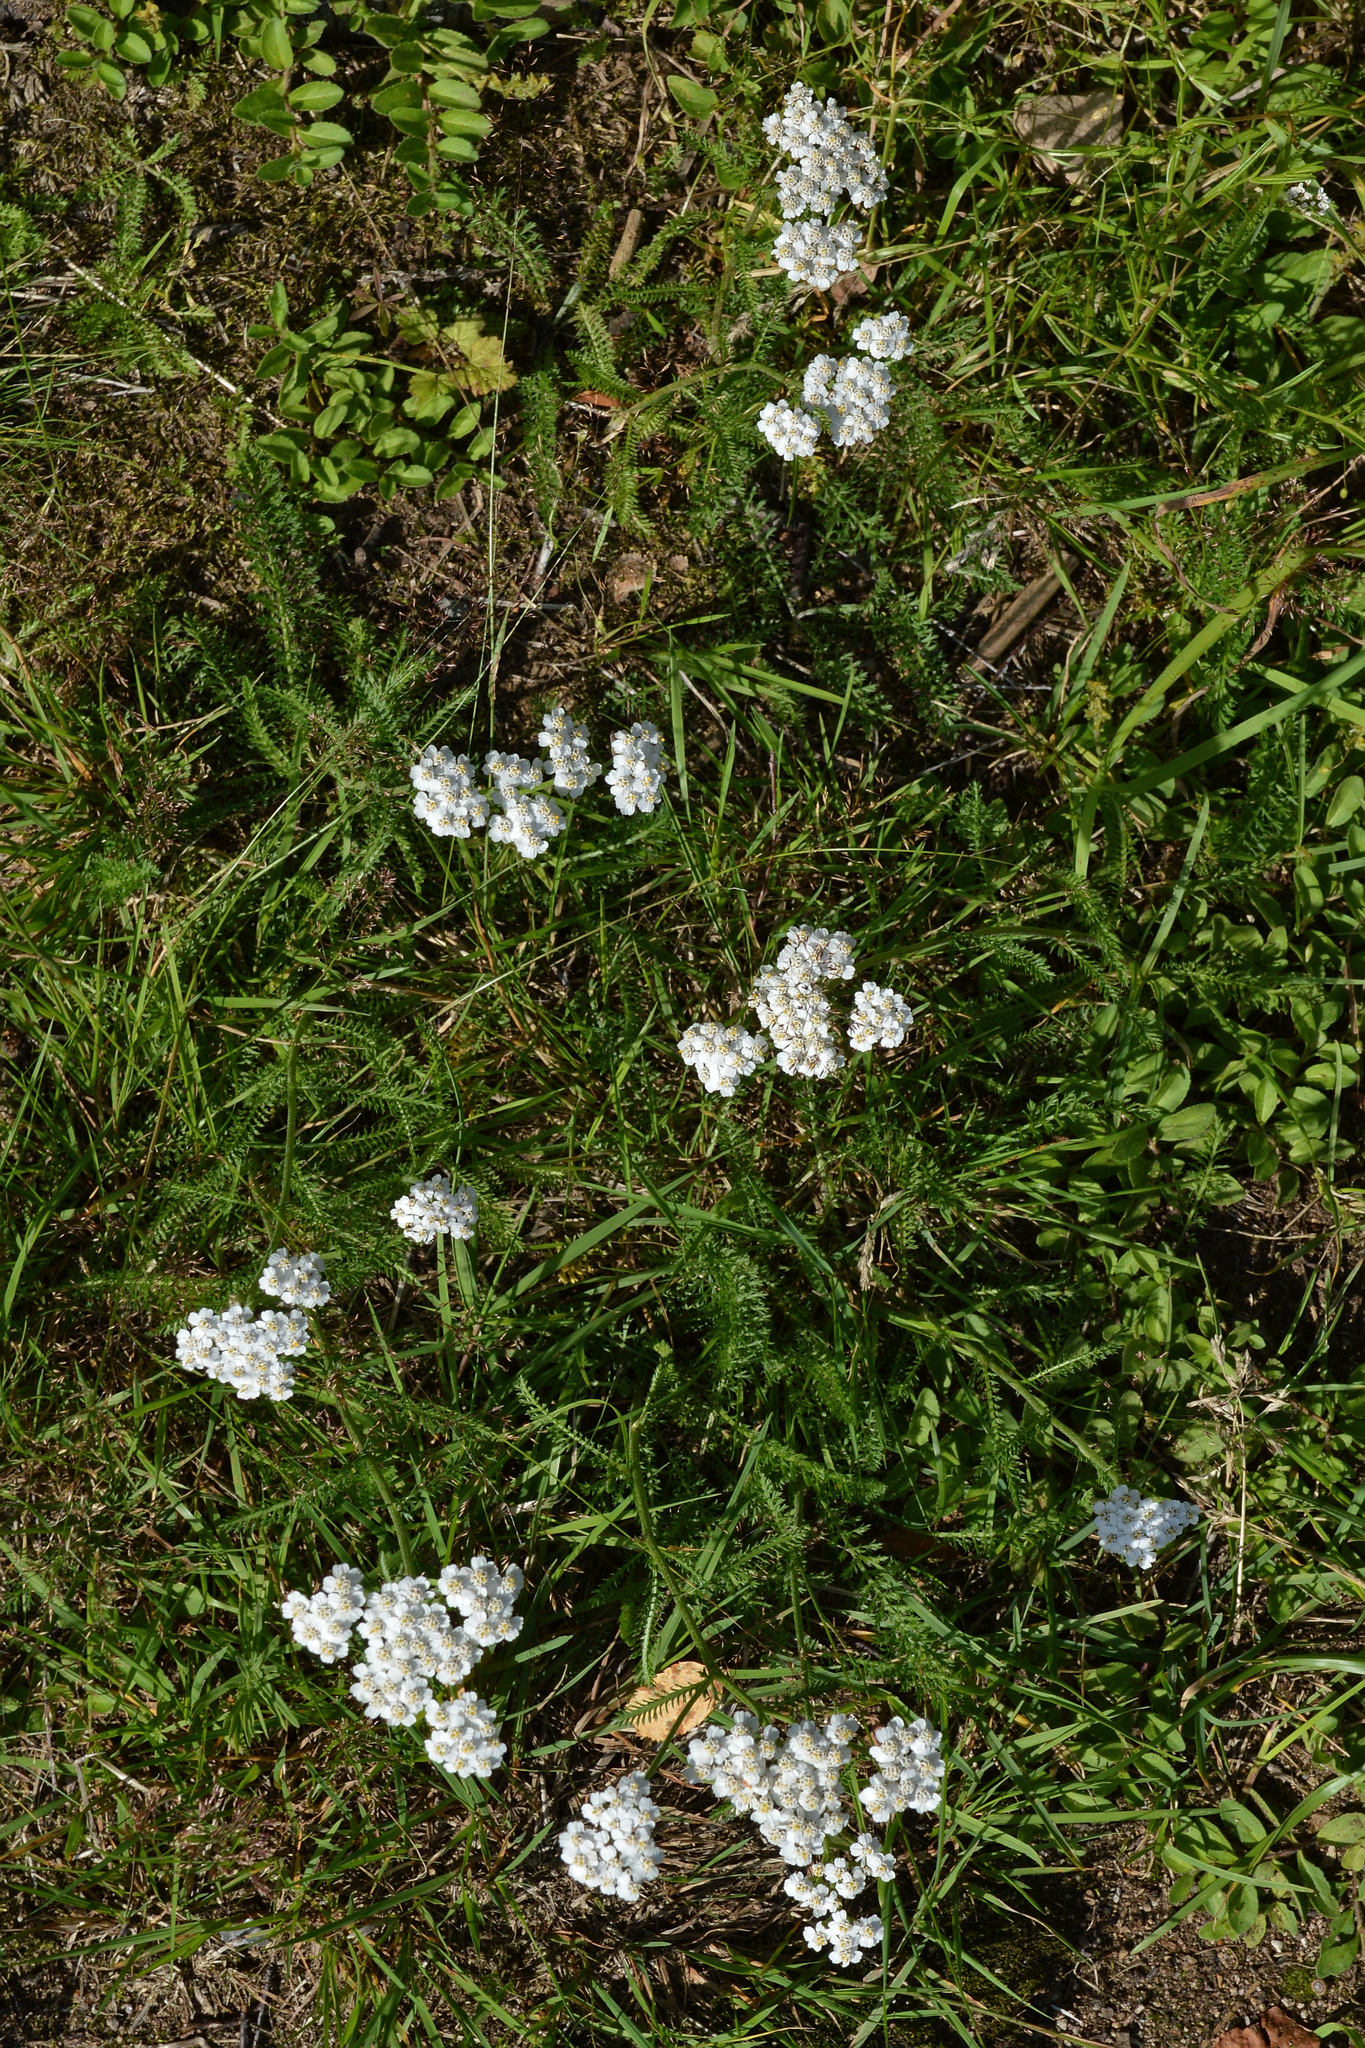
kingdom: Plantae
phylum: Tracheophyta
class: Magnoliopsida
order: Asterales
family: Asteraceae
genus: Achillea
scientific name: Achillea millefolium
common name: Yarrow
